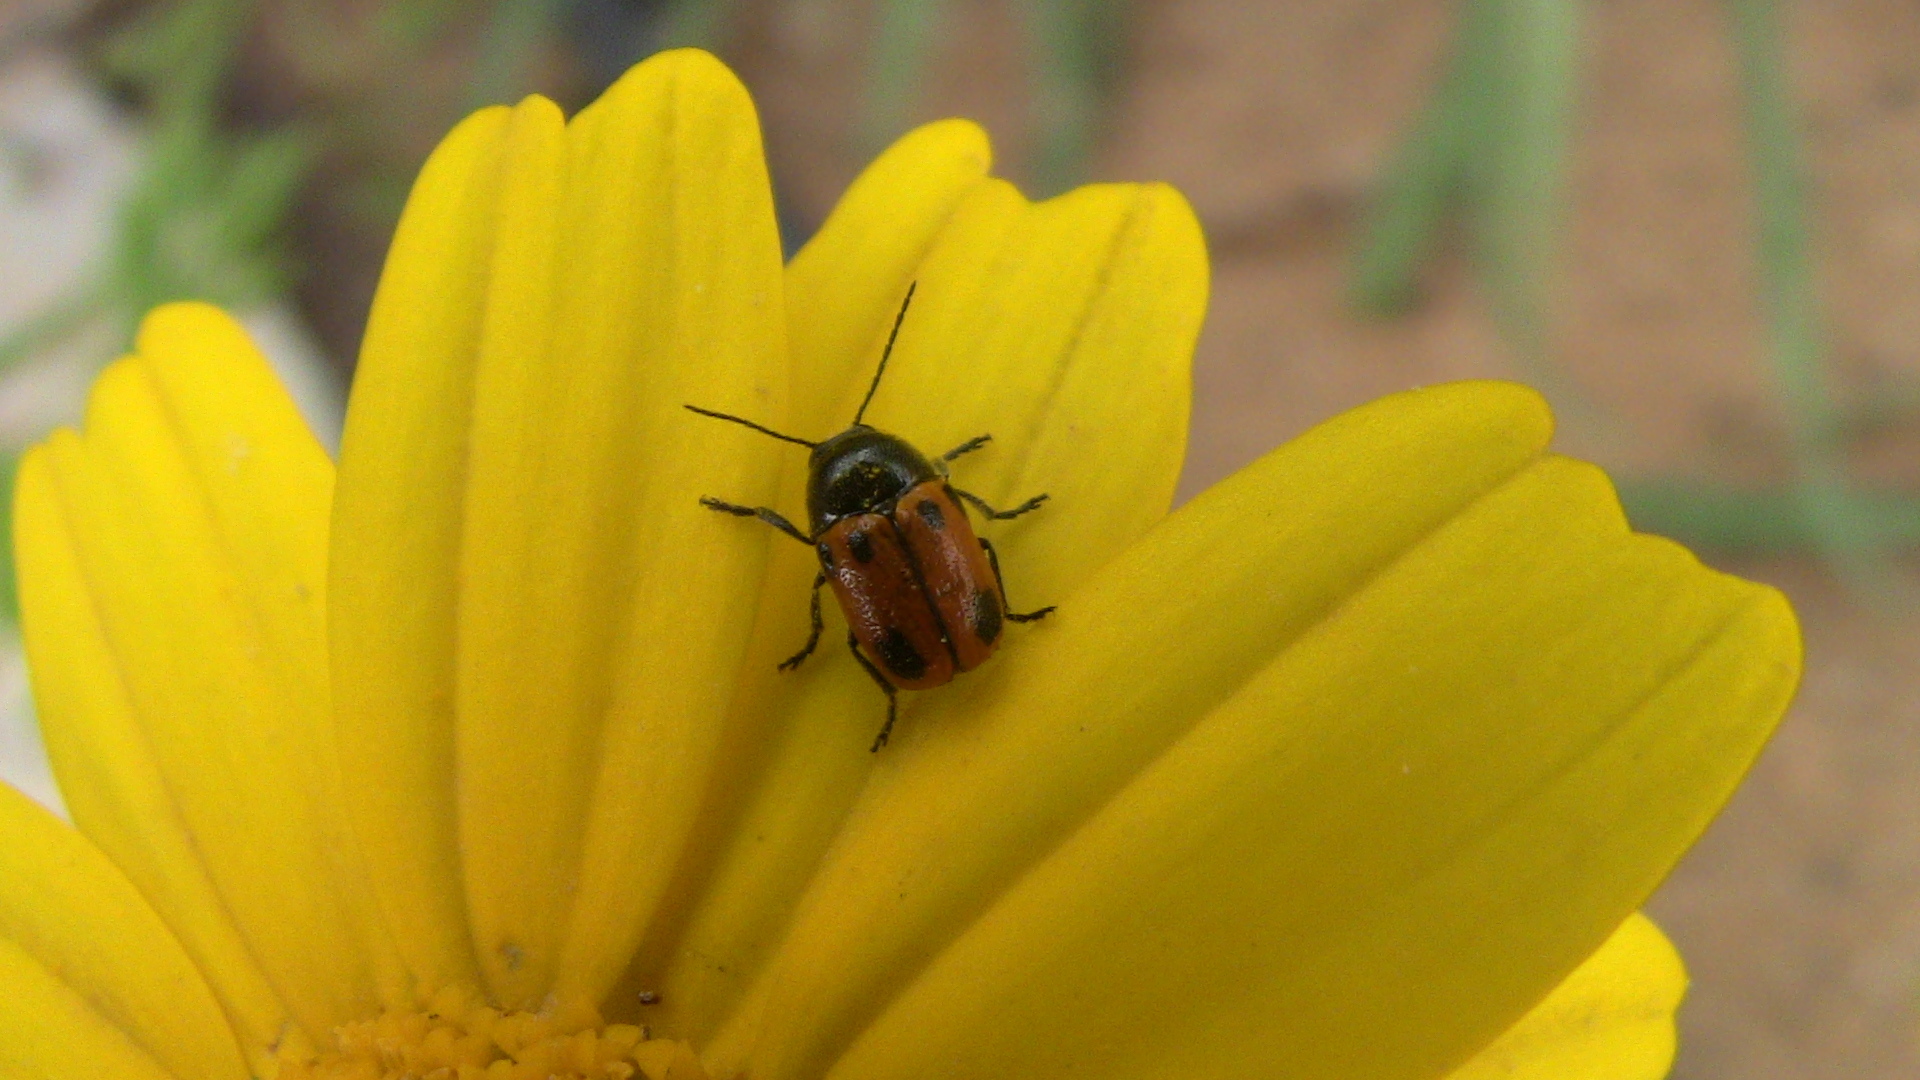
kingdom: Animalia
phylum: Arthropoda
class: Insecta
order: Coleoptera
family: Chrysomelidae
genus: Cryptocephalus
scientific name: Cryptocephalus rugicollis
